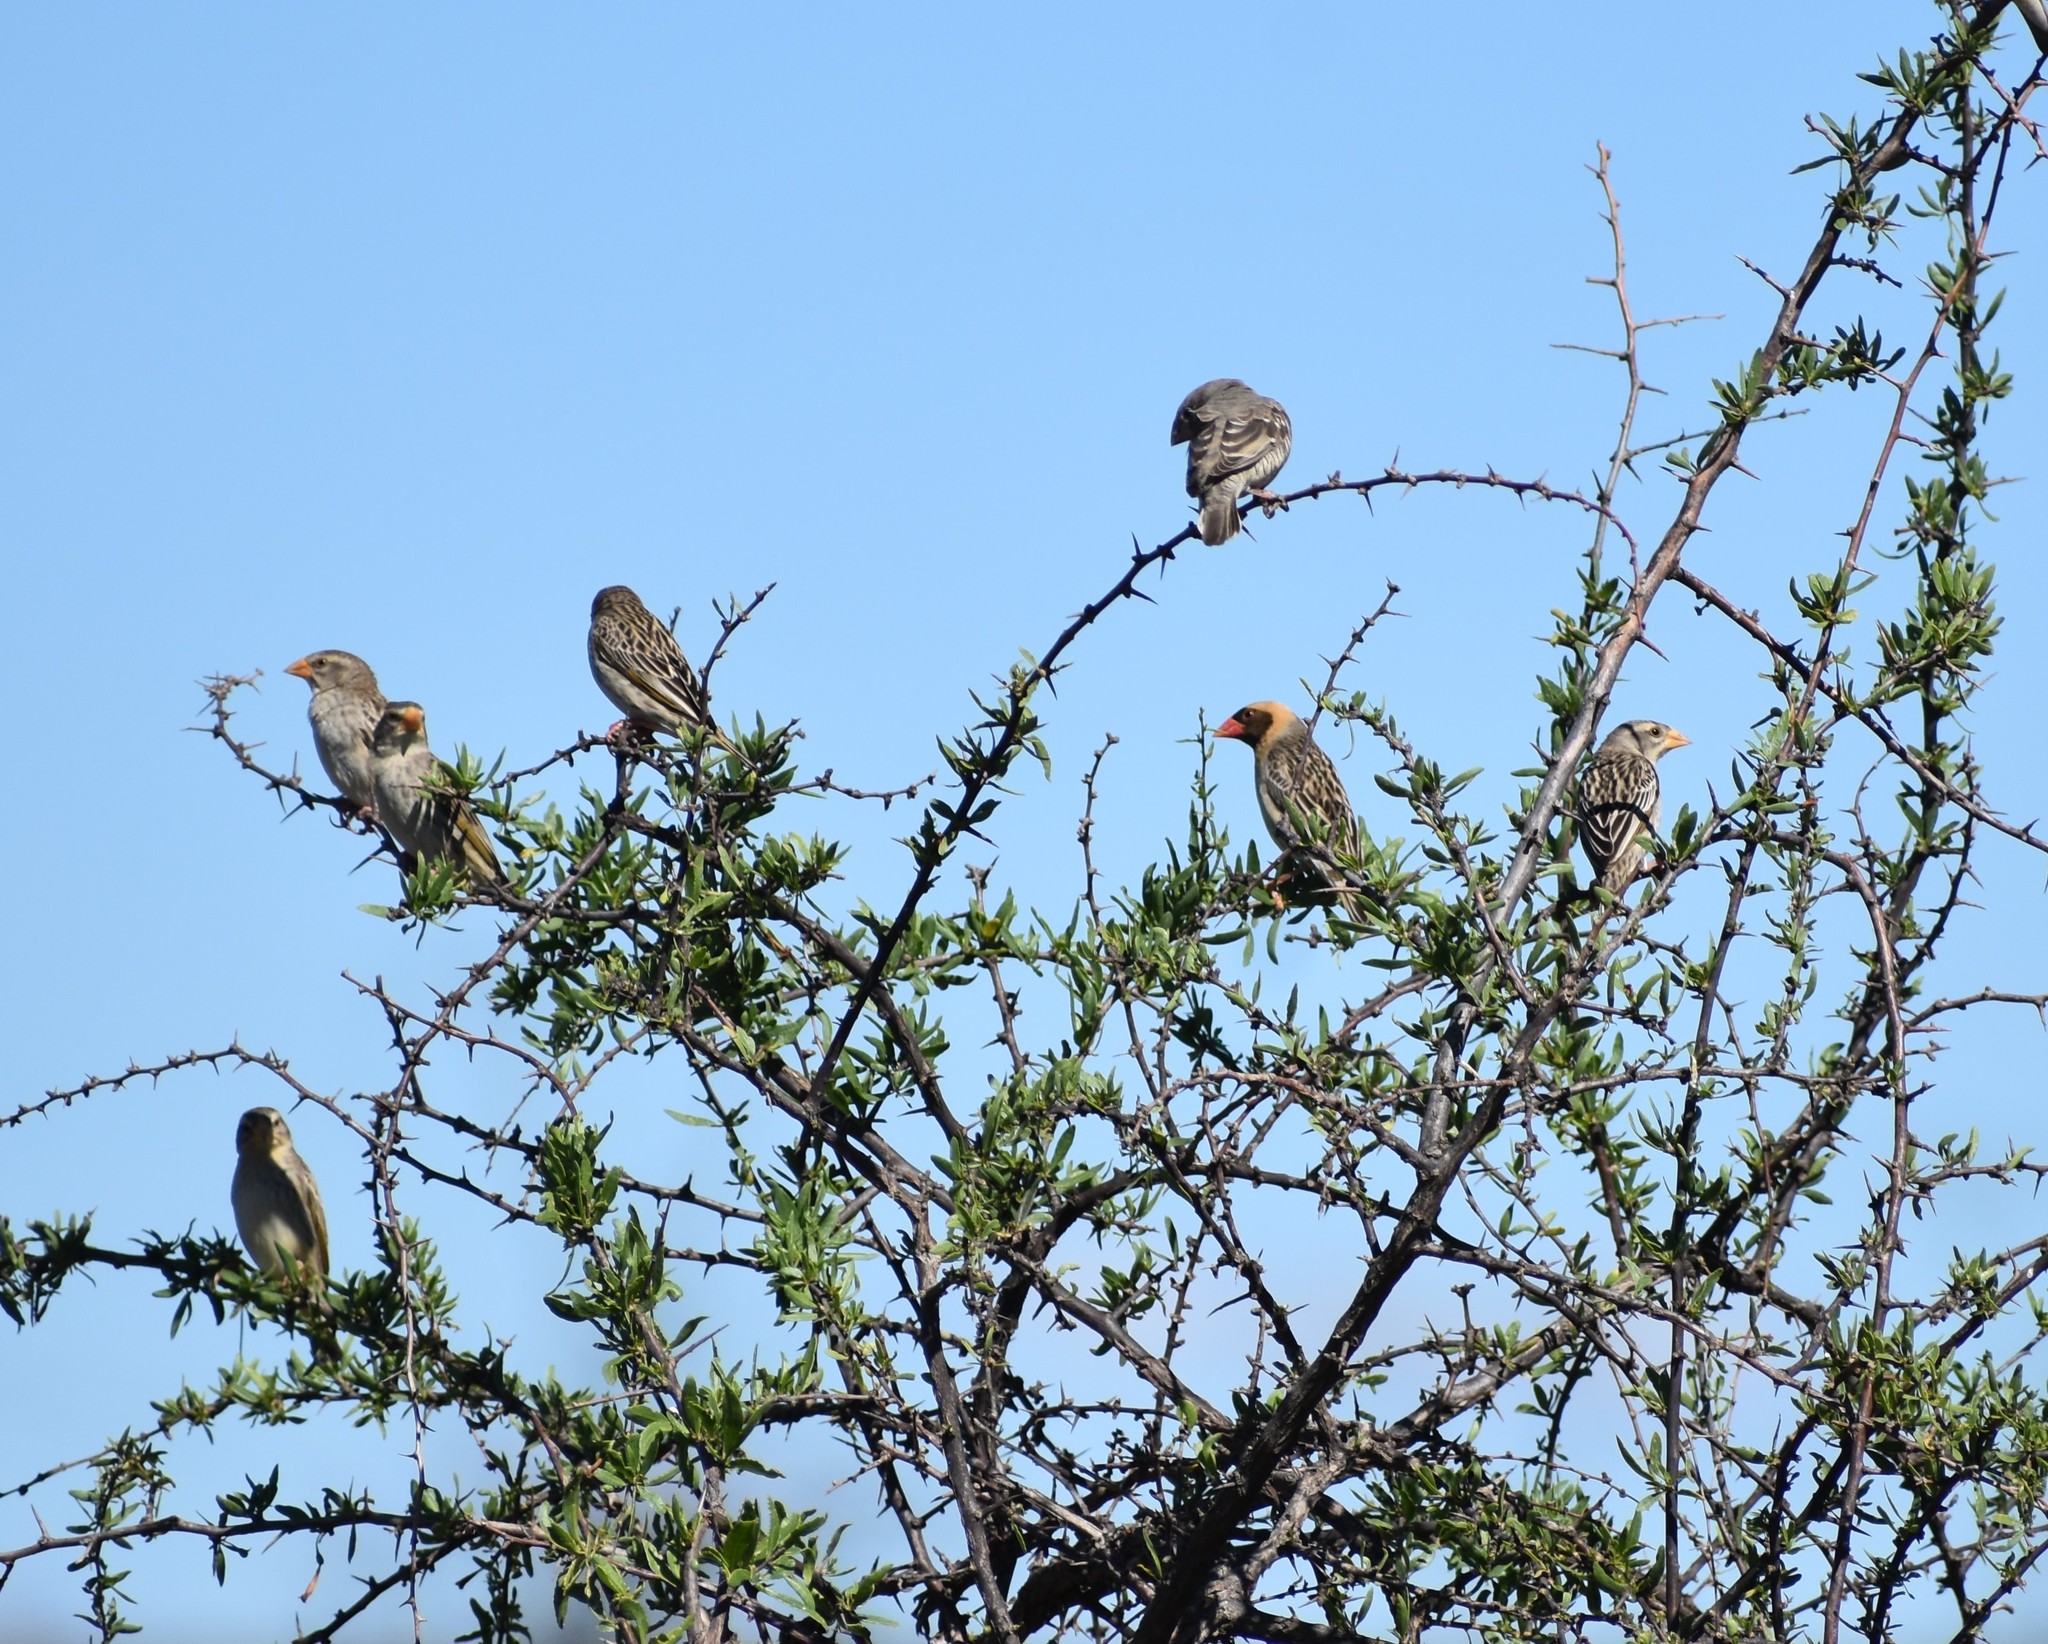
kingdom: Animalia
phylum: Chordata
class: Aves
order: Passeriformes
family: Ploceidae
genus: Quelea
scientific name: Quelea quelea
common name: Red-billed quelea
